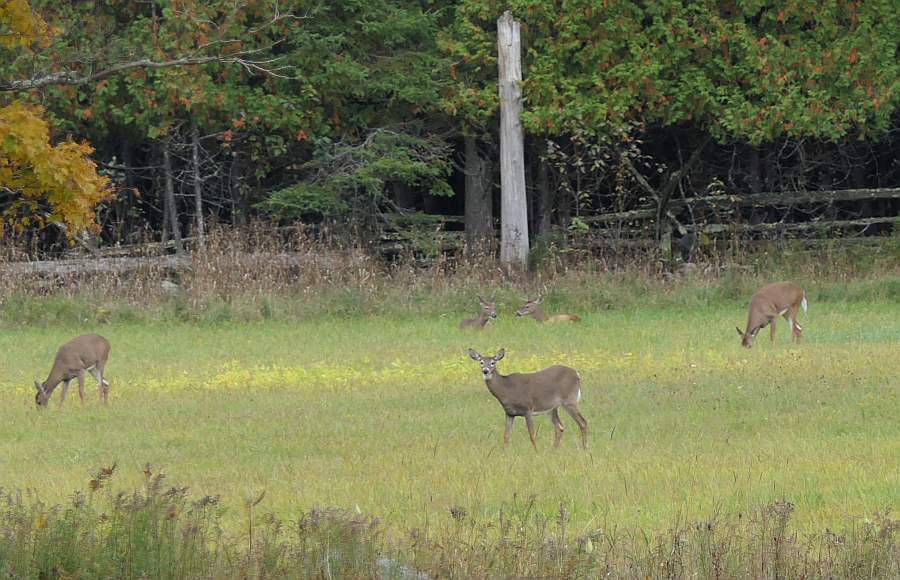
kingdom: Animalia
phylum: Chordata
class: Mammalia
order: Artiodactyla
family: Cervidae
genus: Odocoileus
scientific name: Odocoileus virginianus
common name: White-tailed deer
